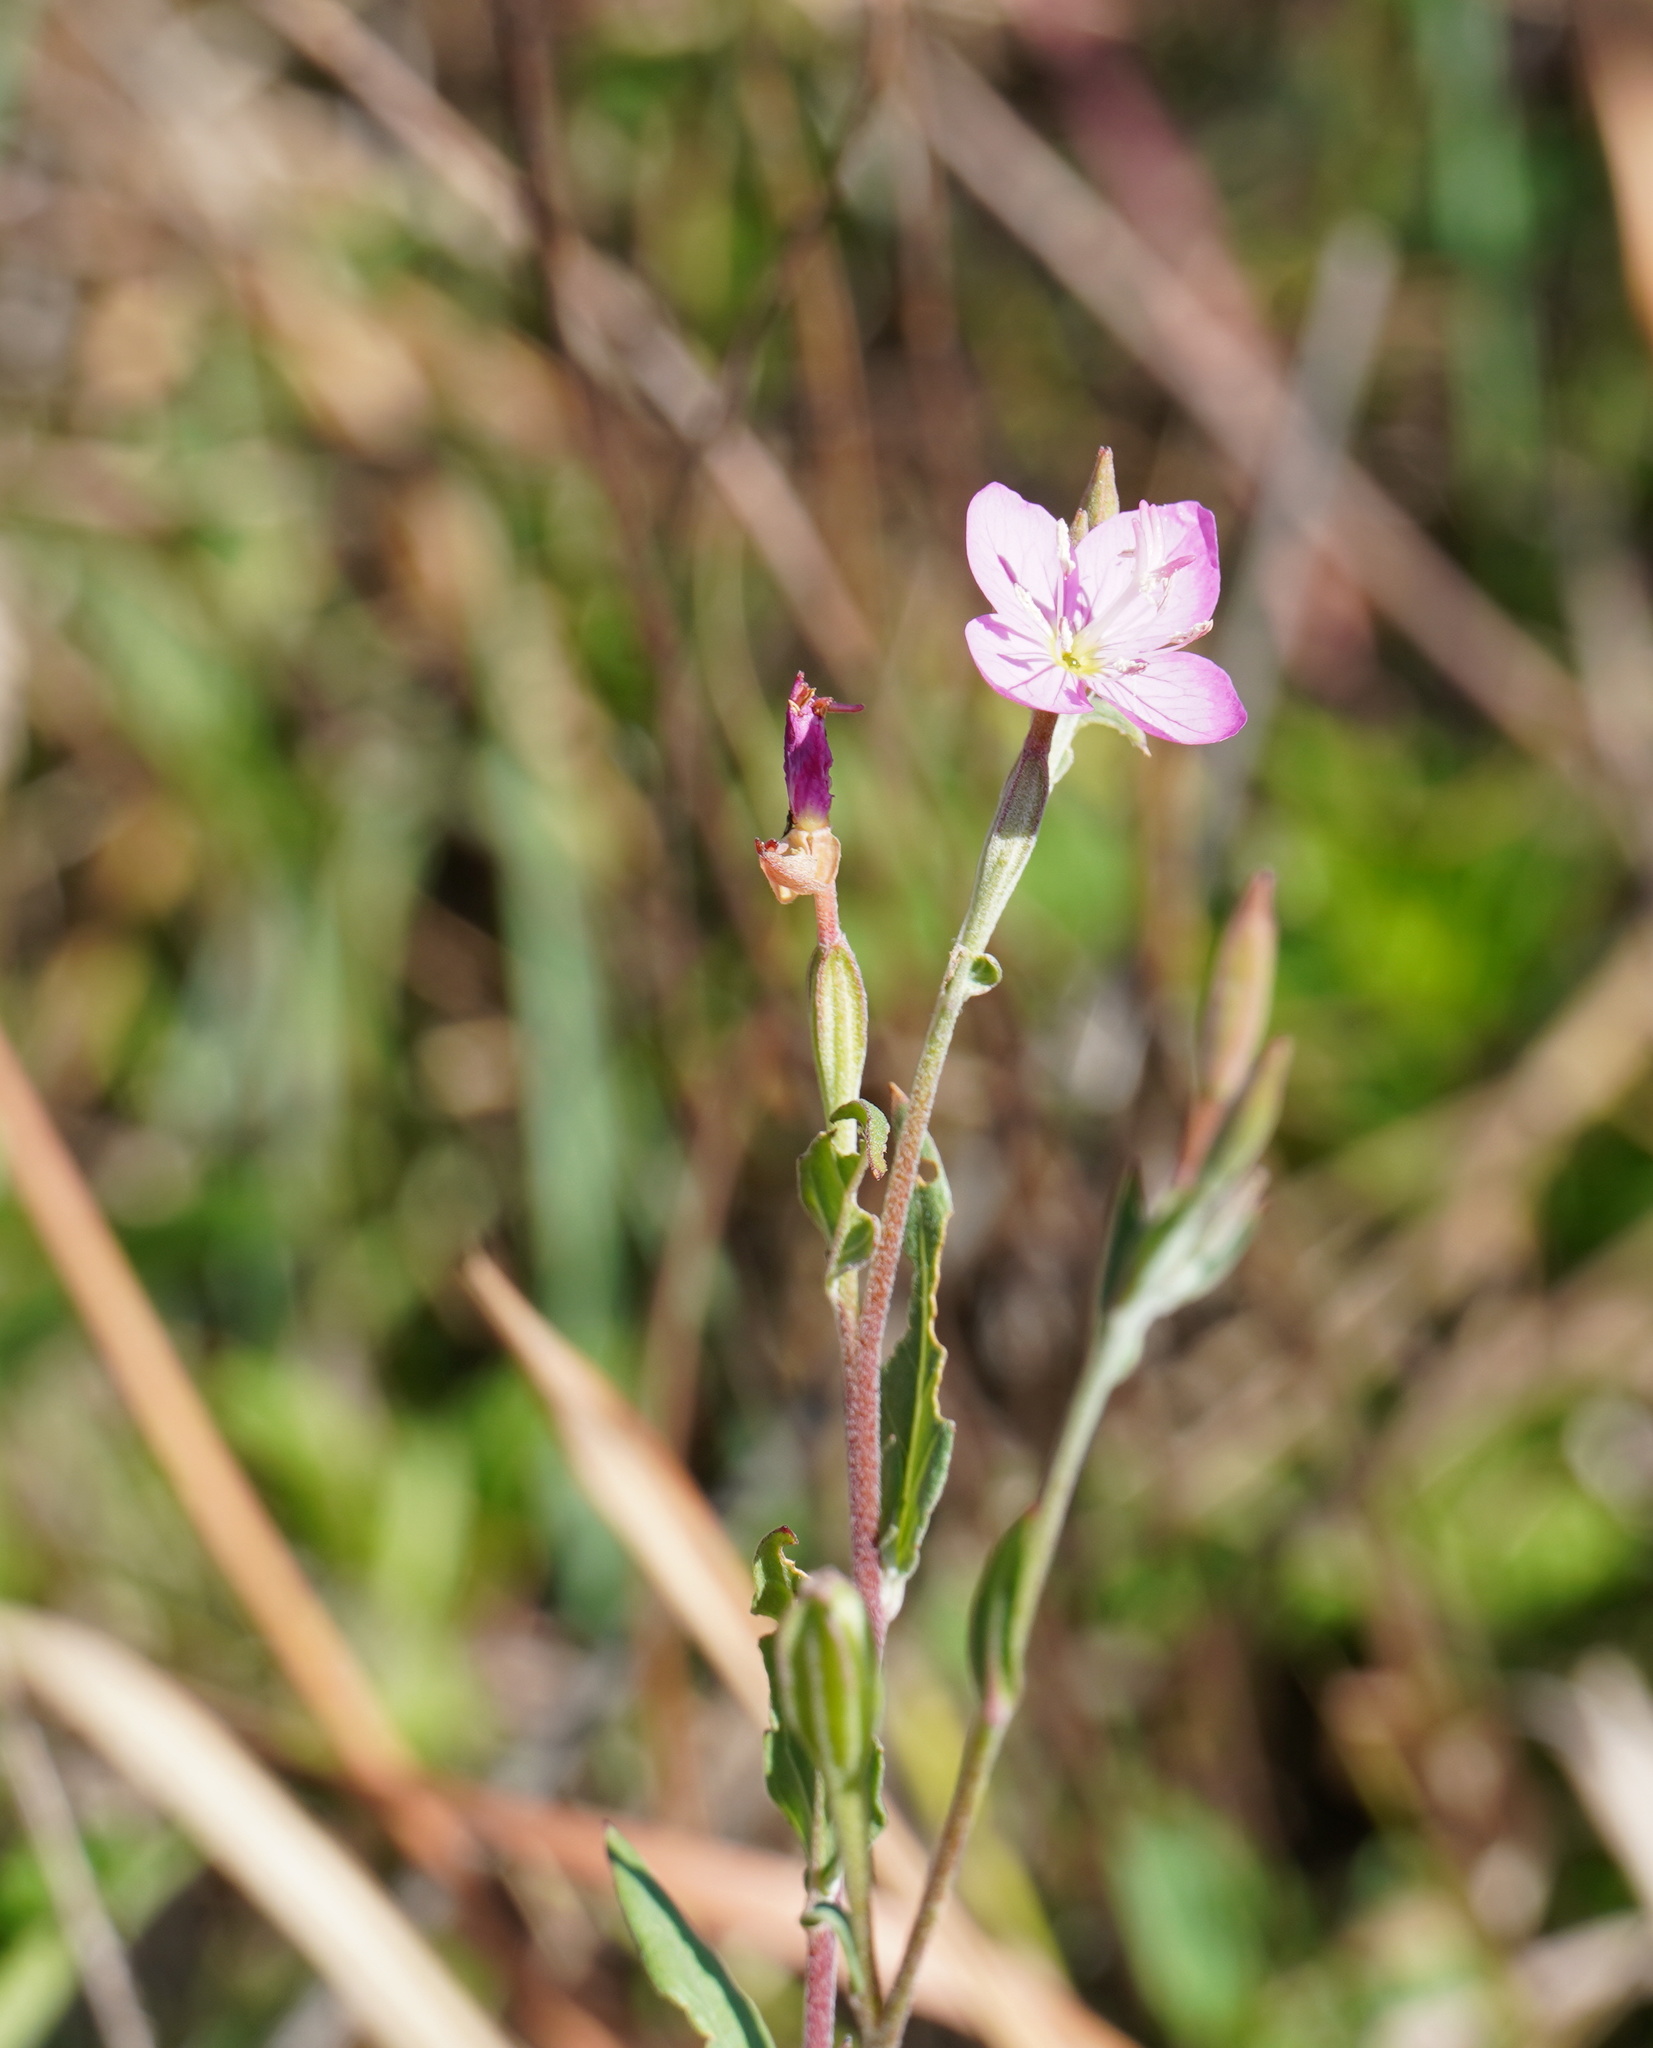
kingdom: Plantae
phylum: Tracheophyta
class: Magnoliopsida
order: Myrtales
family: Onagraceae
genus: Oenothera
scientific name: Oenothera rosea
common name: Rosy evening-primrose
